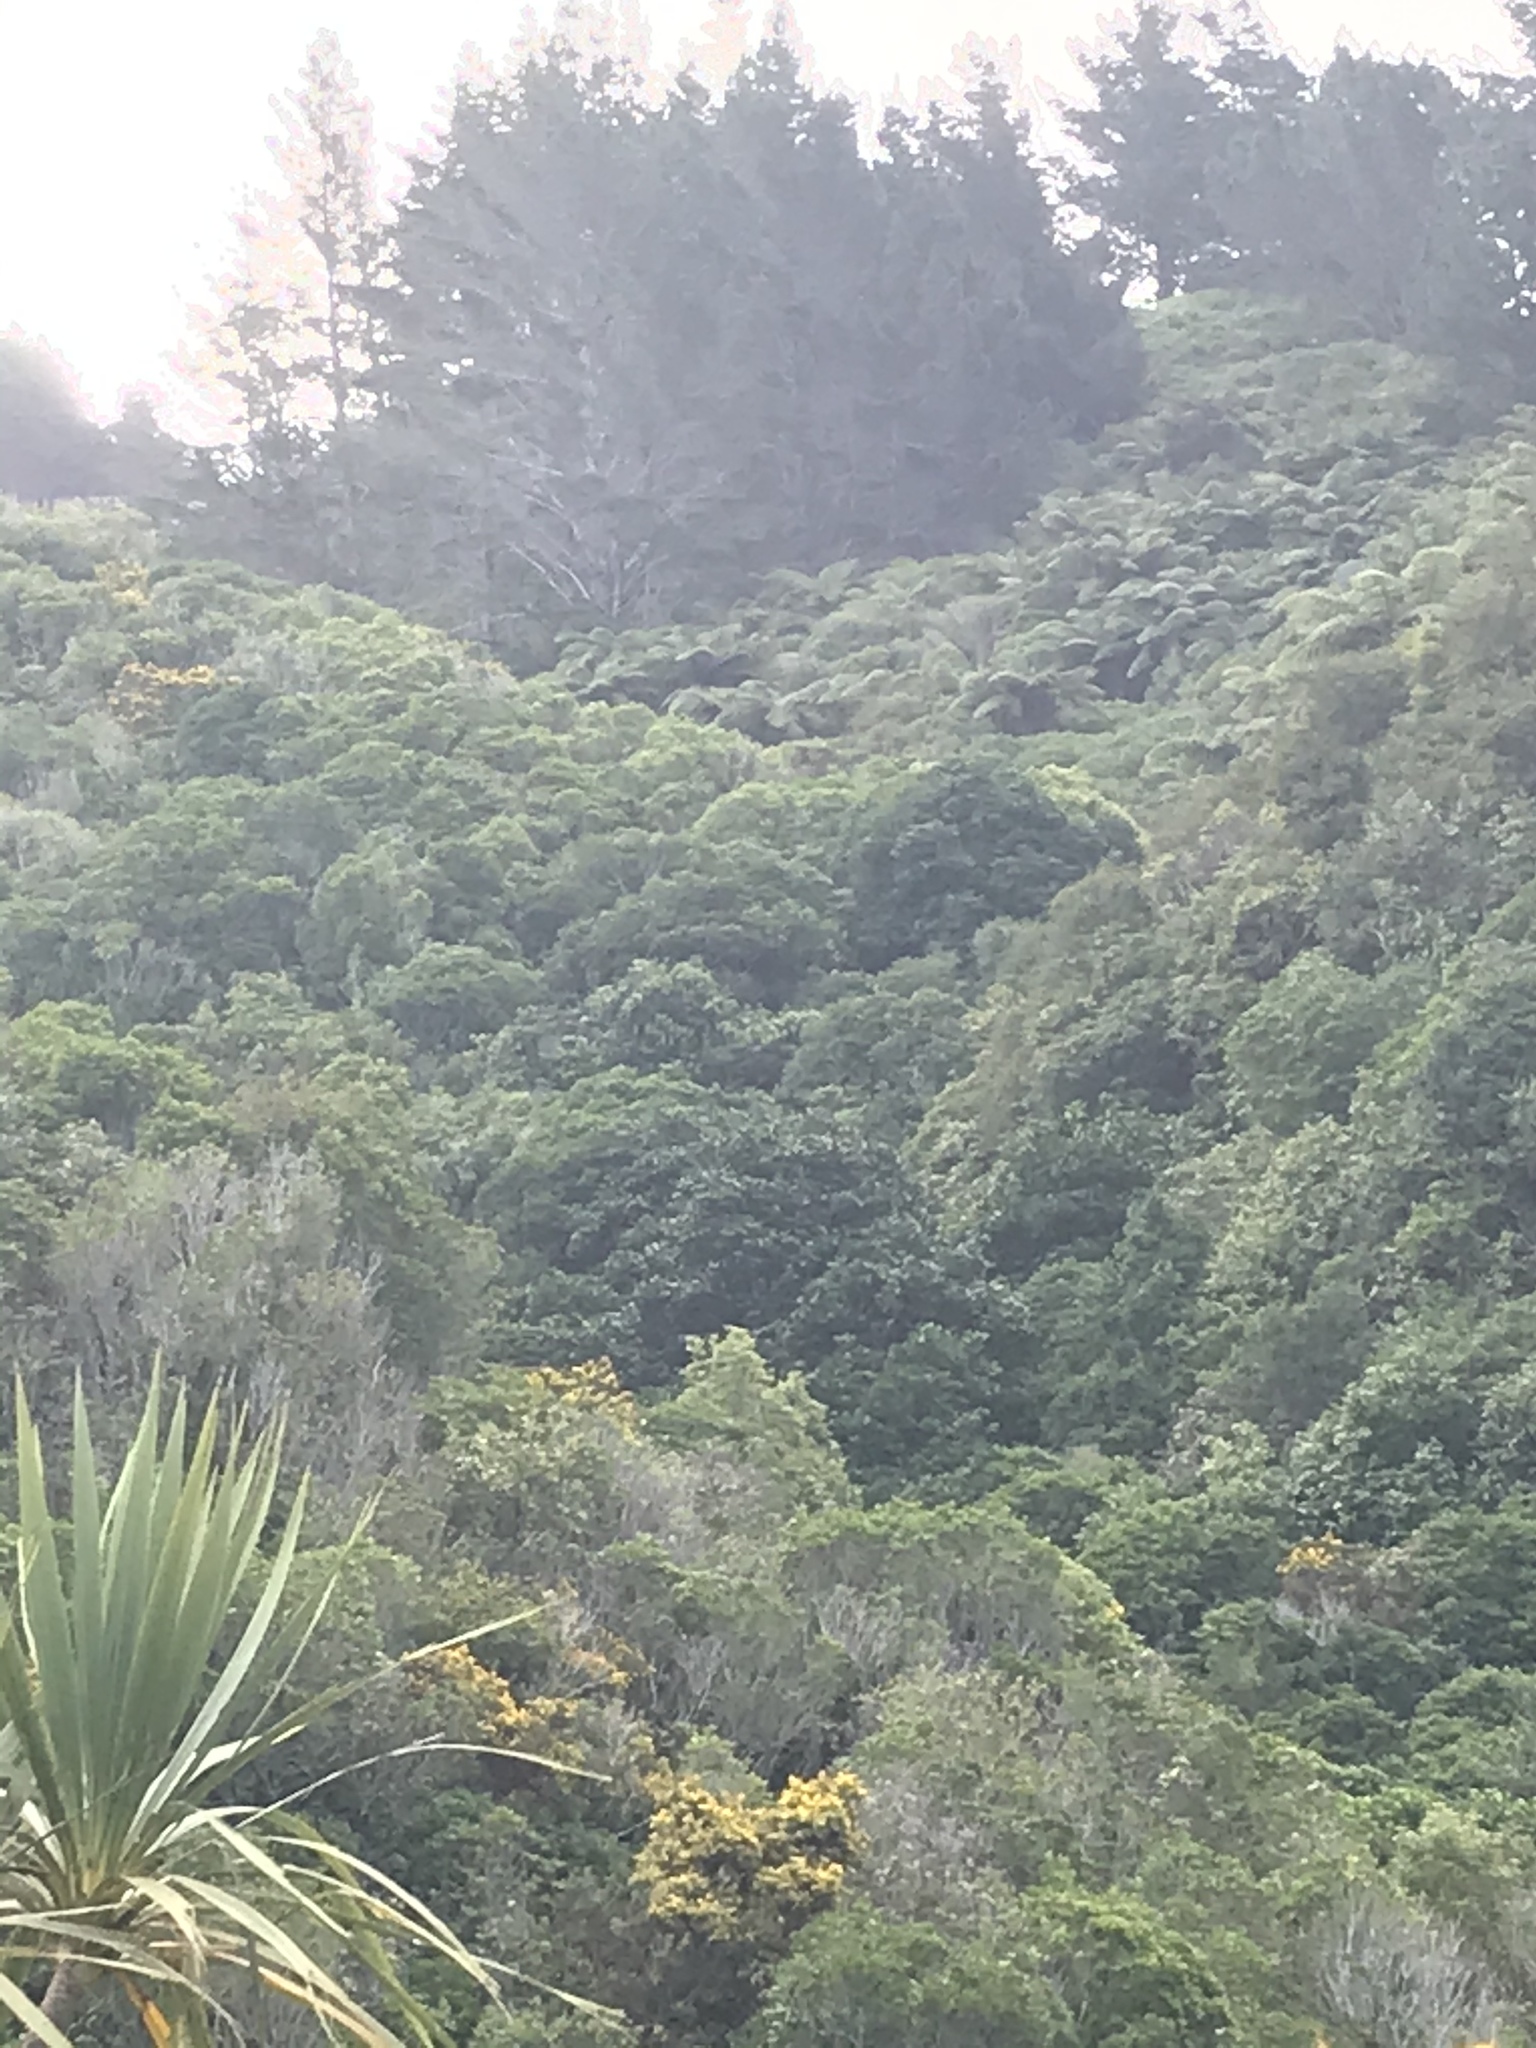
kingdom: Plantae
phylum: Tracheophyta
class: Magnoliopsida
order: Cucurbitales
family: Corynocarpaceae
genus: Corynocarpus
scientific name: Corynocarpus laevigatus
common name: New zealand laurel
